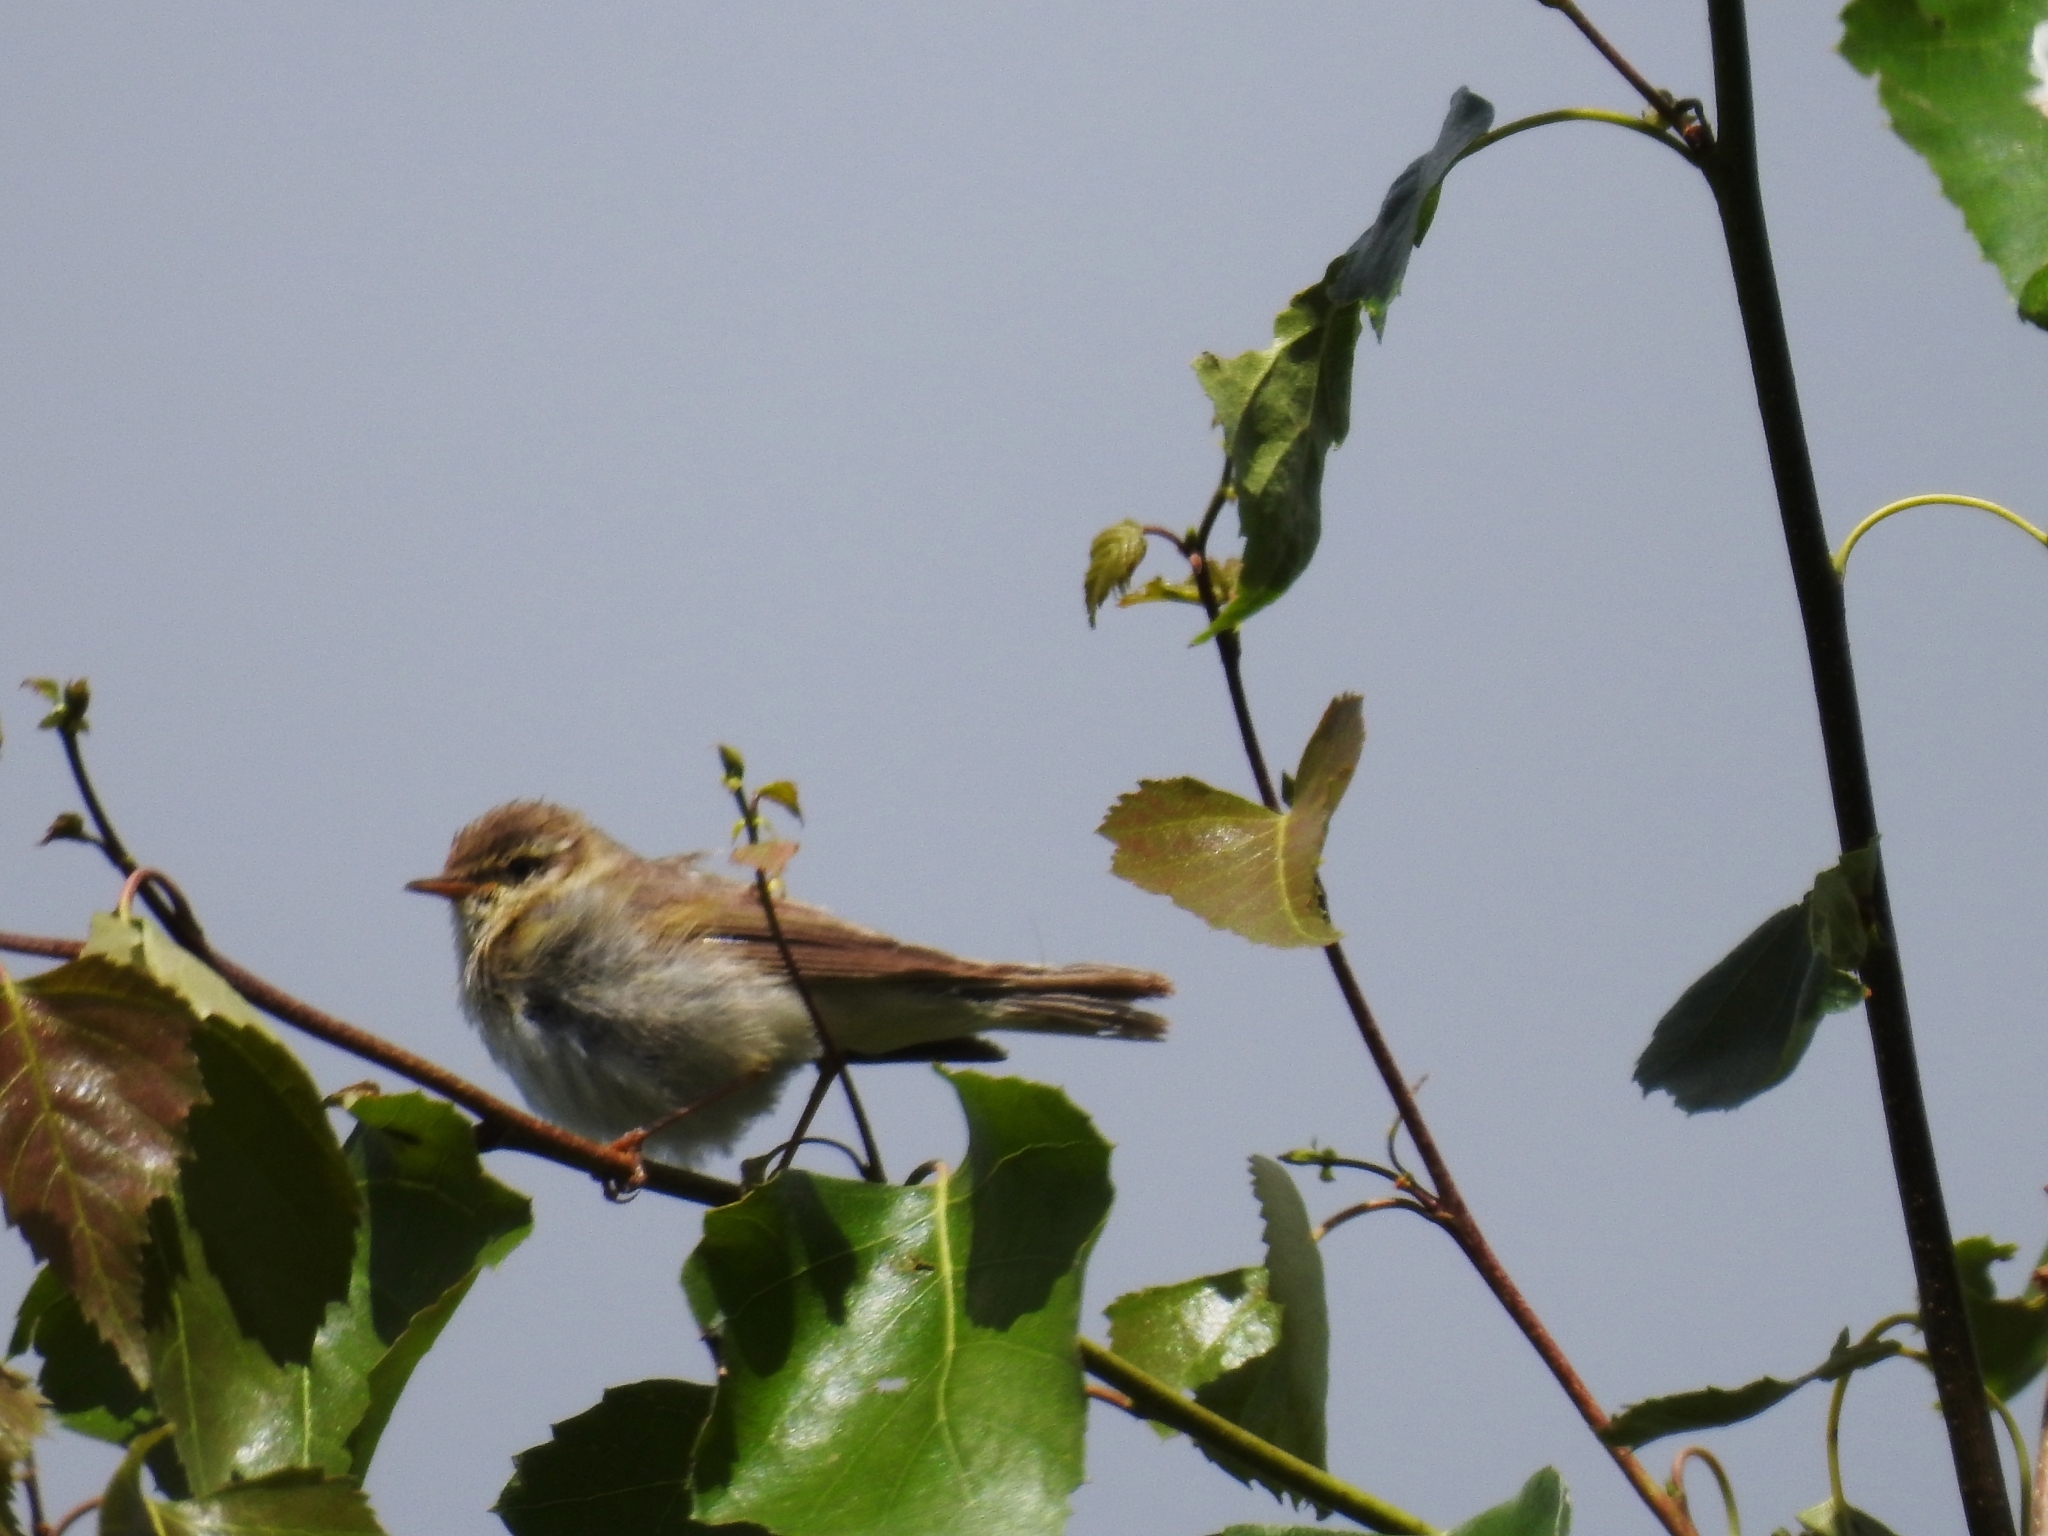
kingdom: Animalia
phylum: Chordata
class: Aves
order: Passeriformes
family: Phylloscopidae
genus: Phylloscopus
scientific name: Phylloscopus trochilus
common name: Willow warbler
